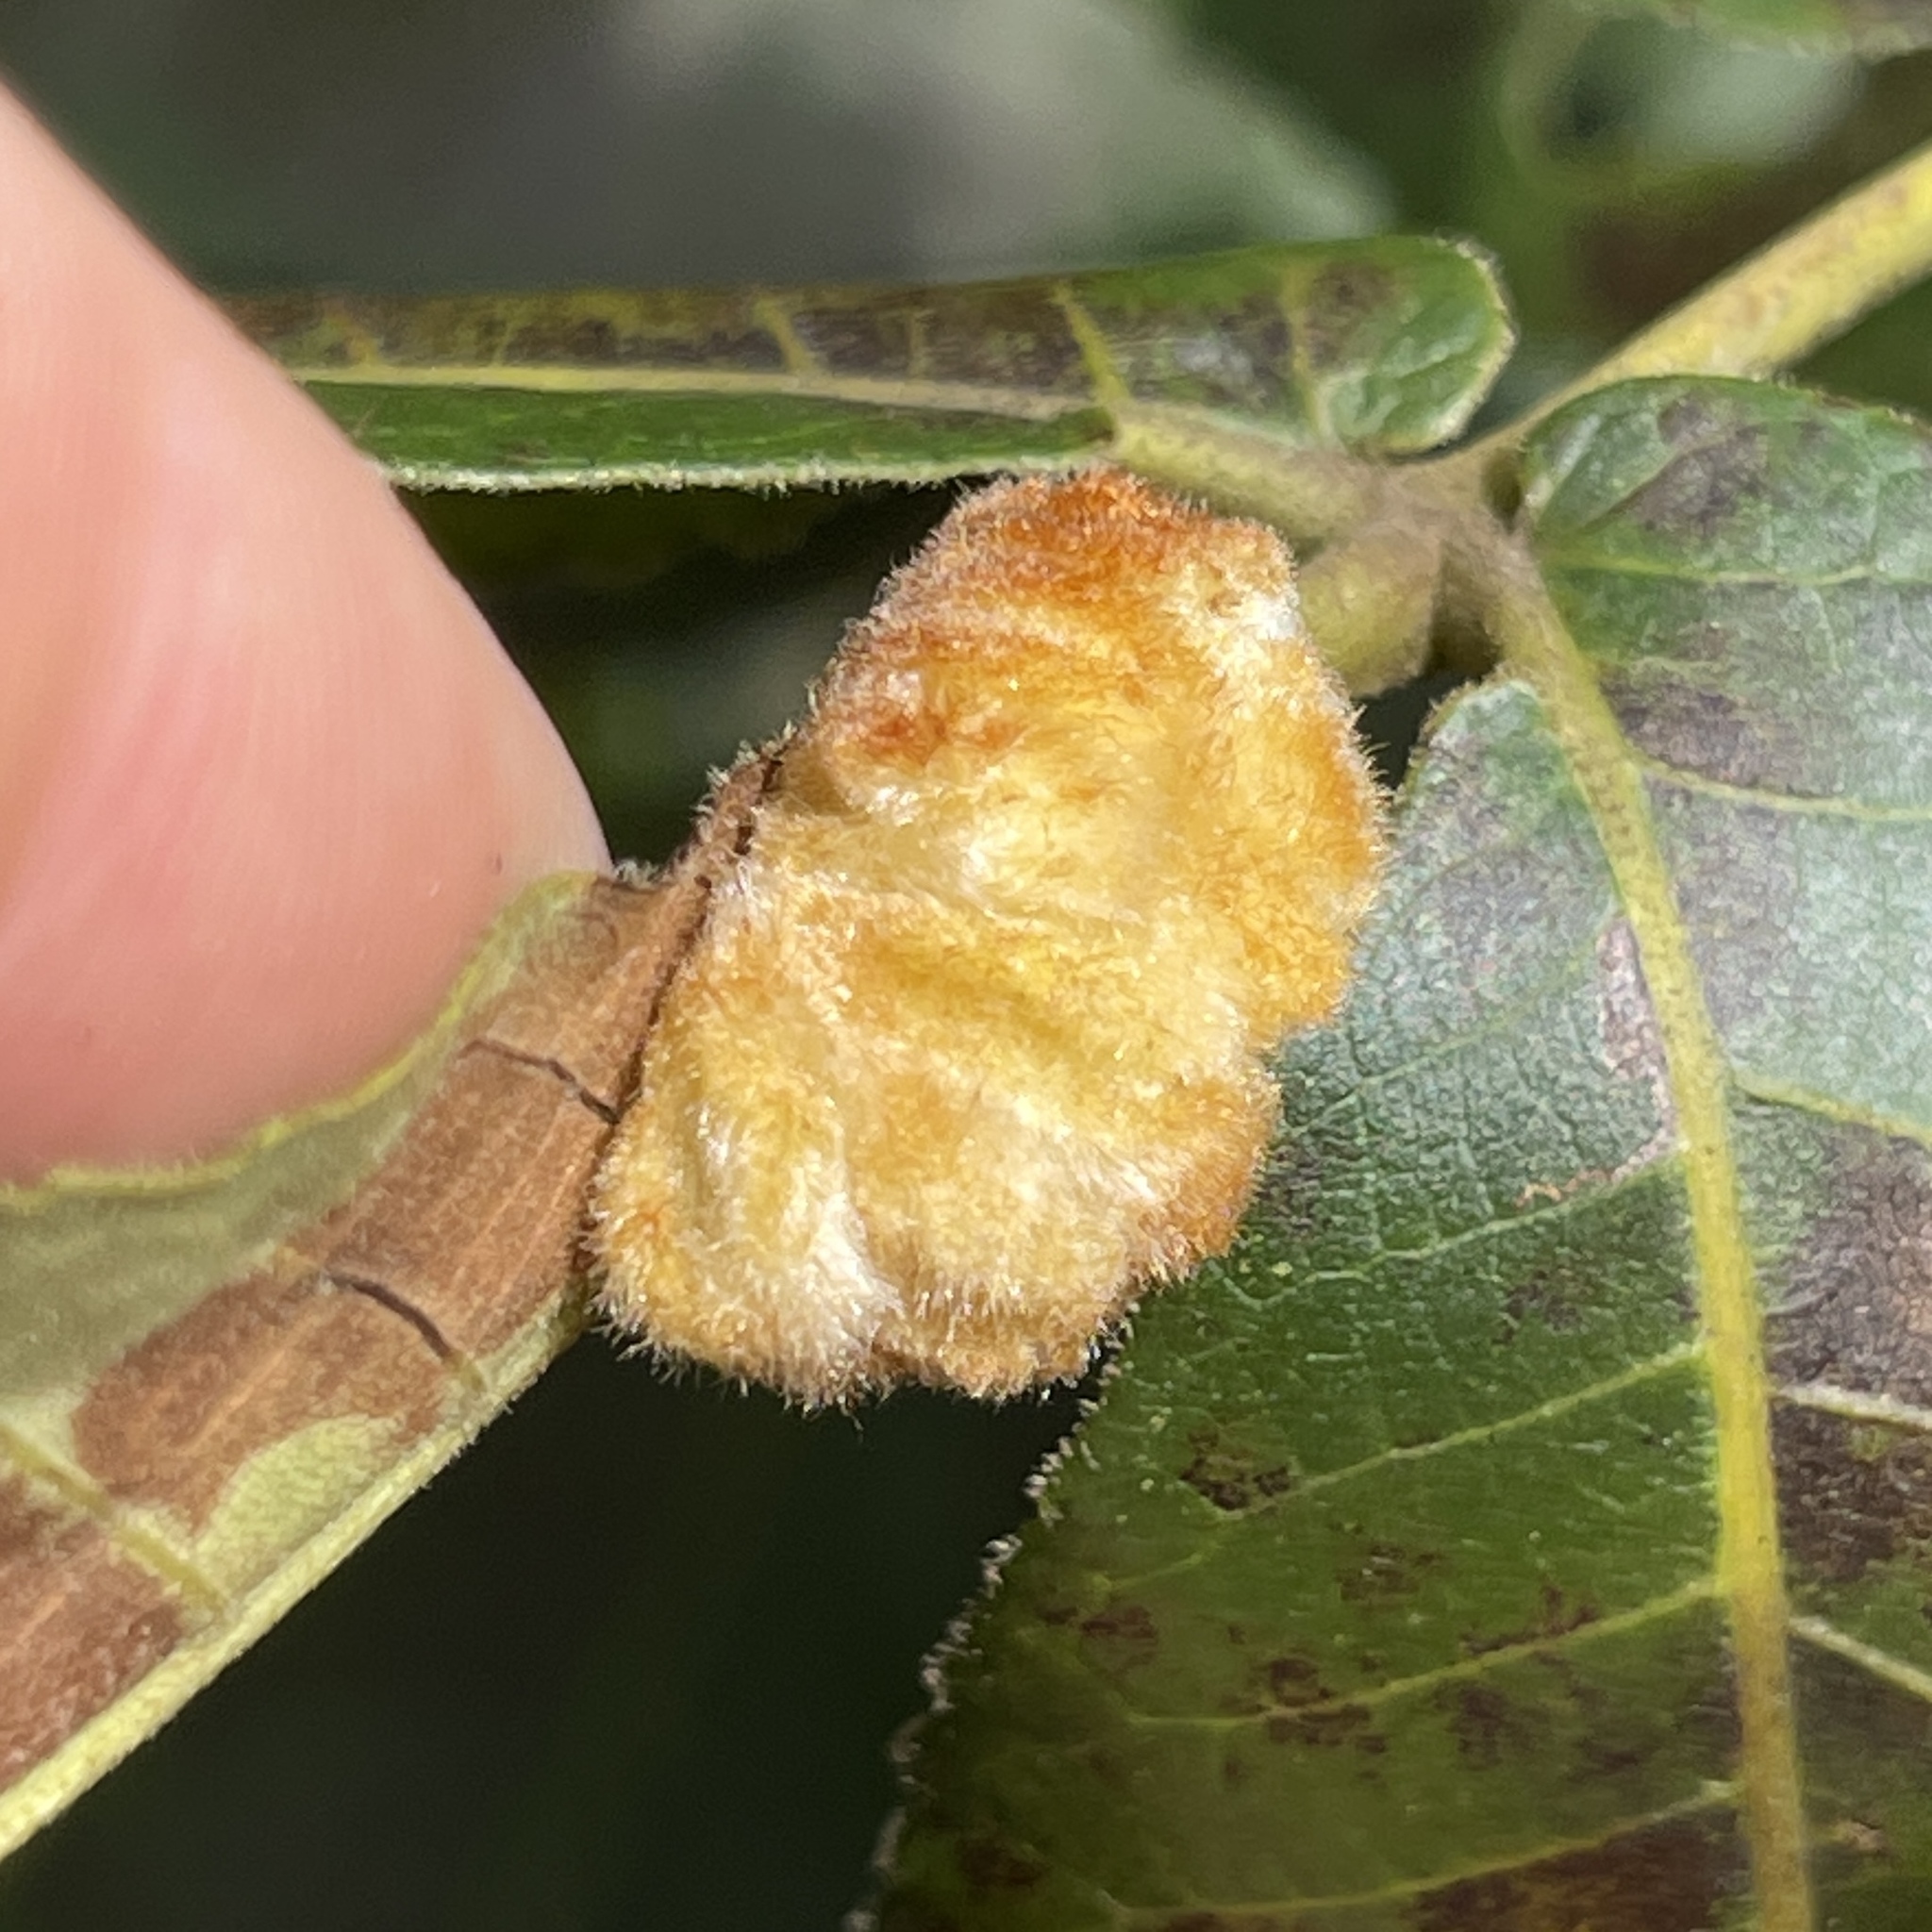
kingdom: Animalia
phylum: Arthropoda
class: Insecta
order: Diptera
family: Cecidomyiidae
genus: Caryomyia
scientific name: Caryomyia aggregata
